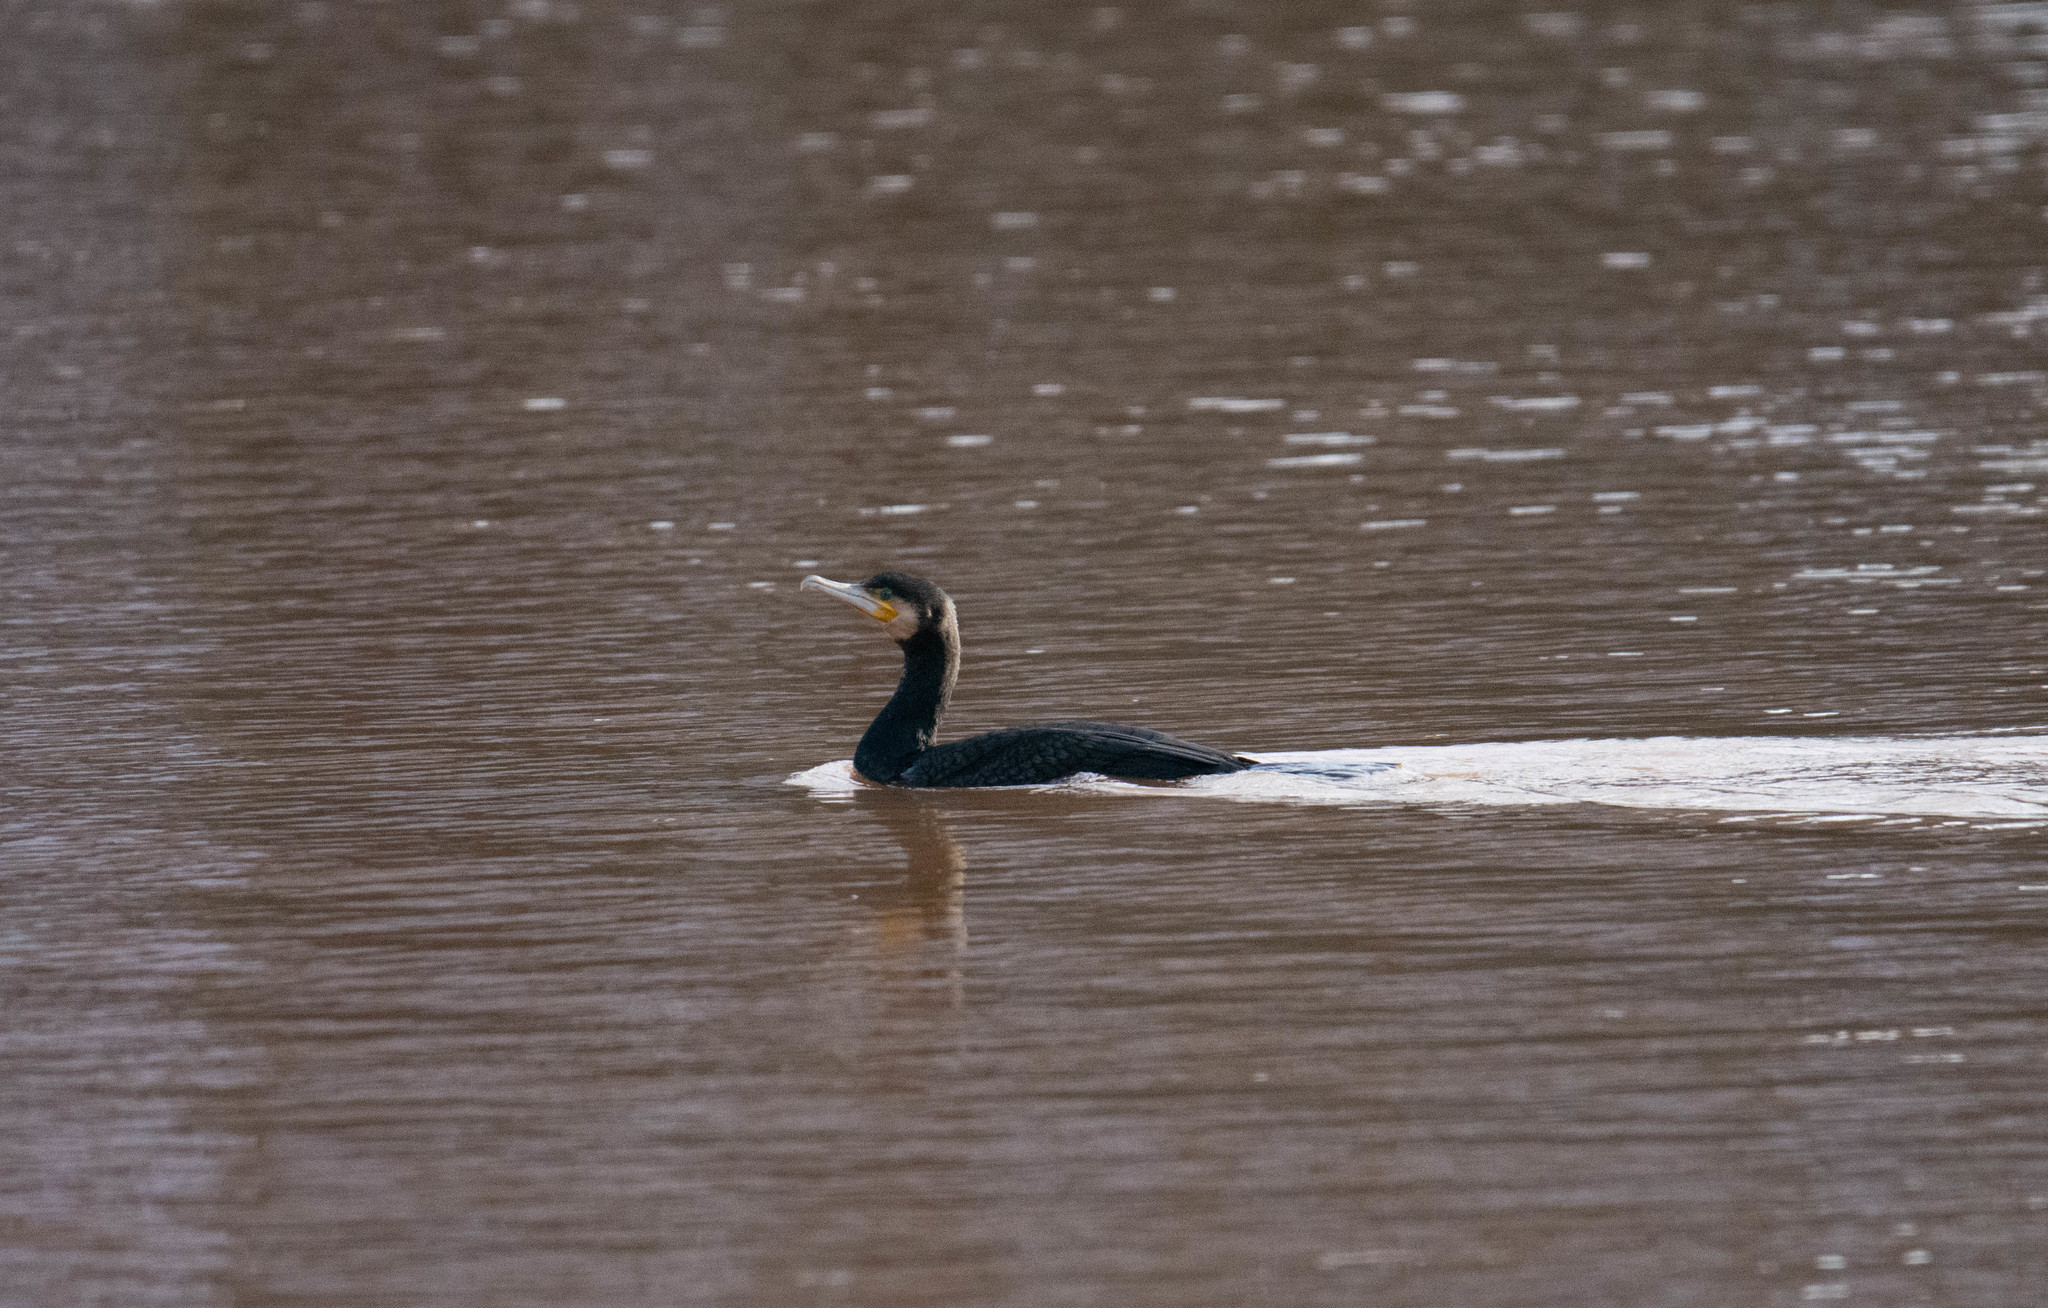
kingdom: Animalia
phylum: Chordata
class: Aves
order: Suliformes
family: Phalacrocoracidae
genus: Phalacrocorax
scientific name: Phalacrocorax carbo
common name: Great cormorant
